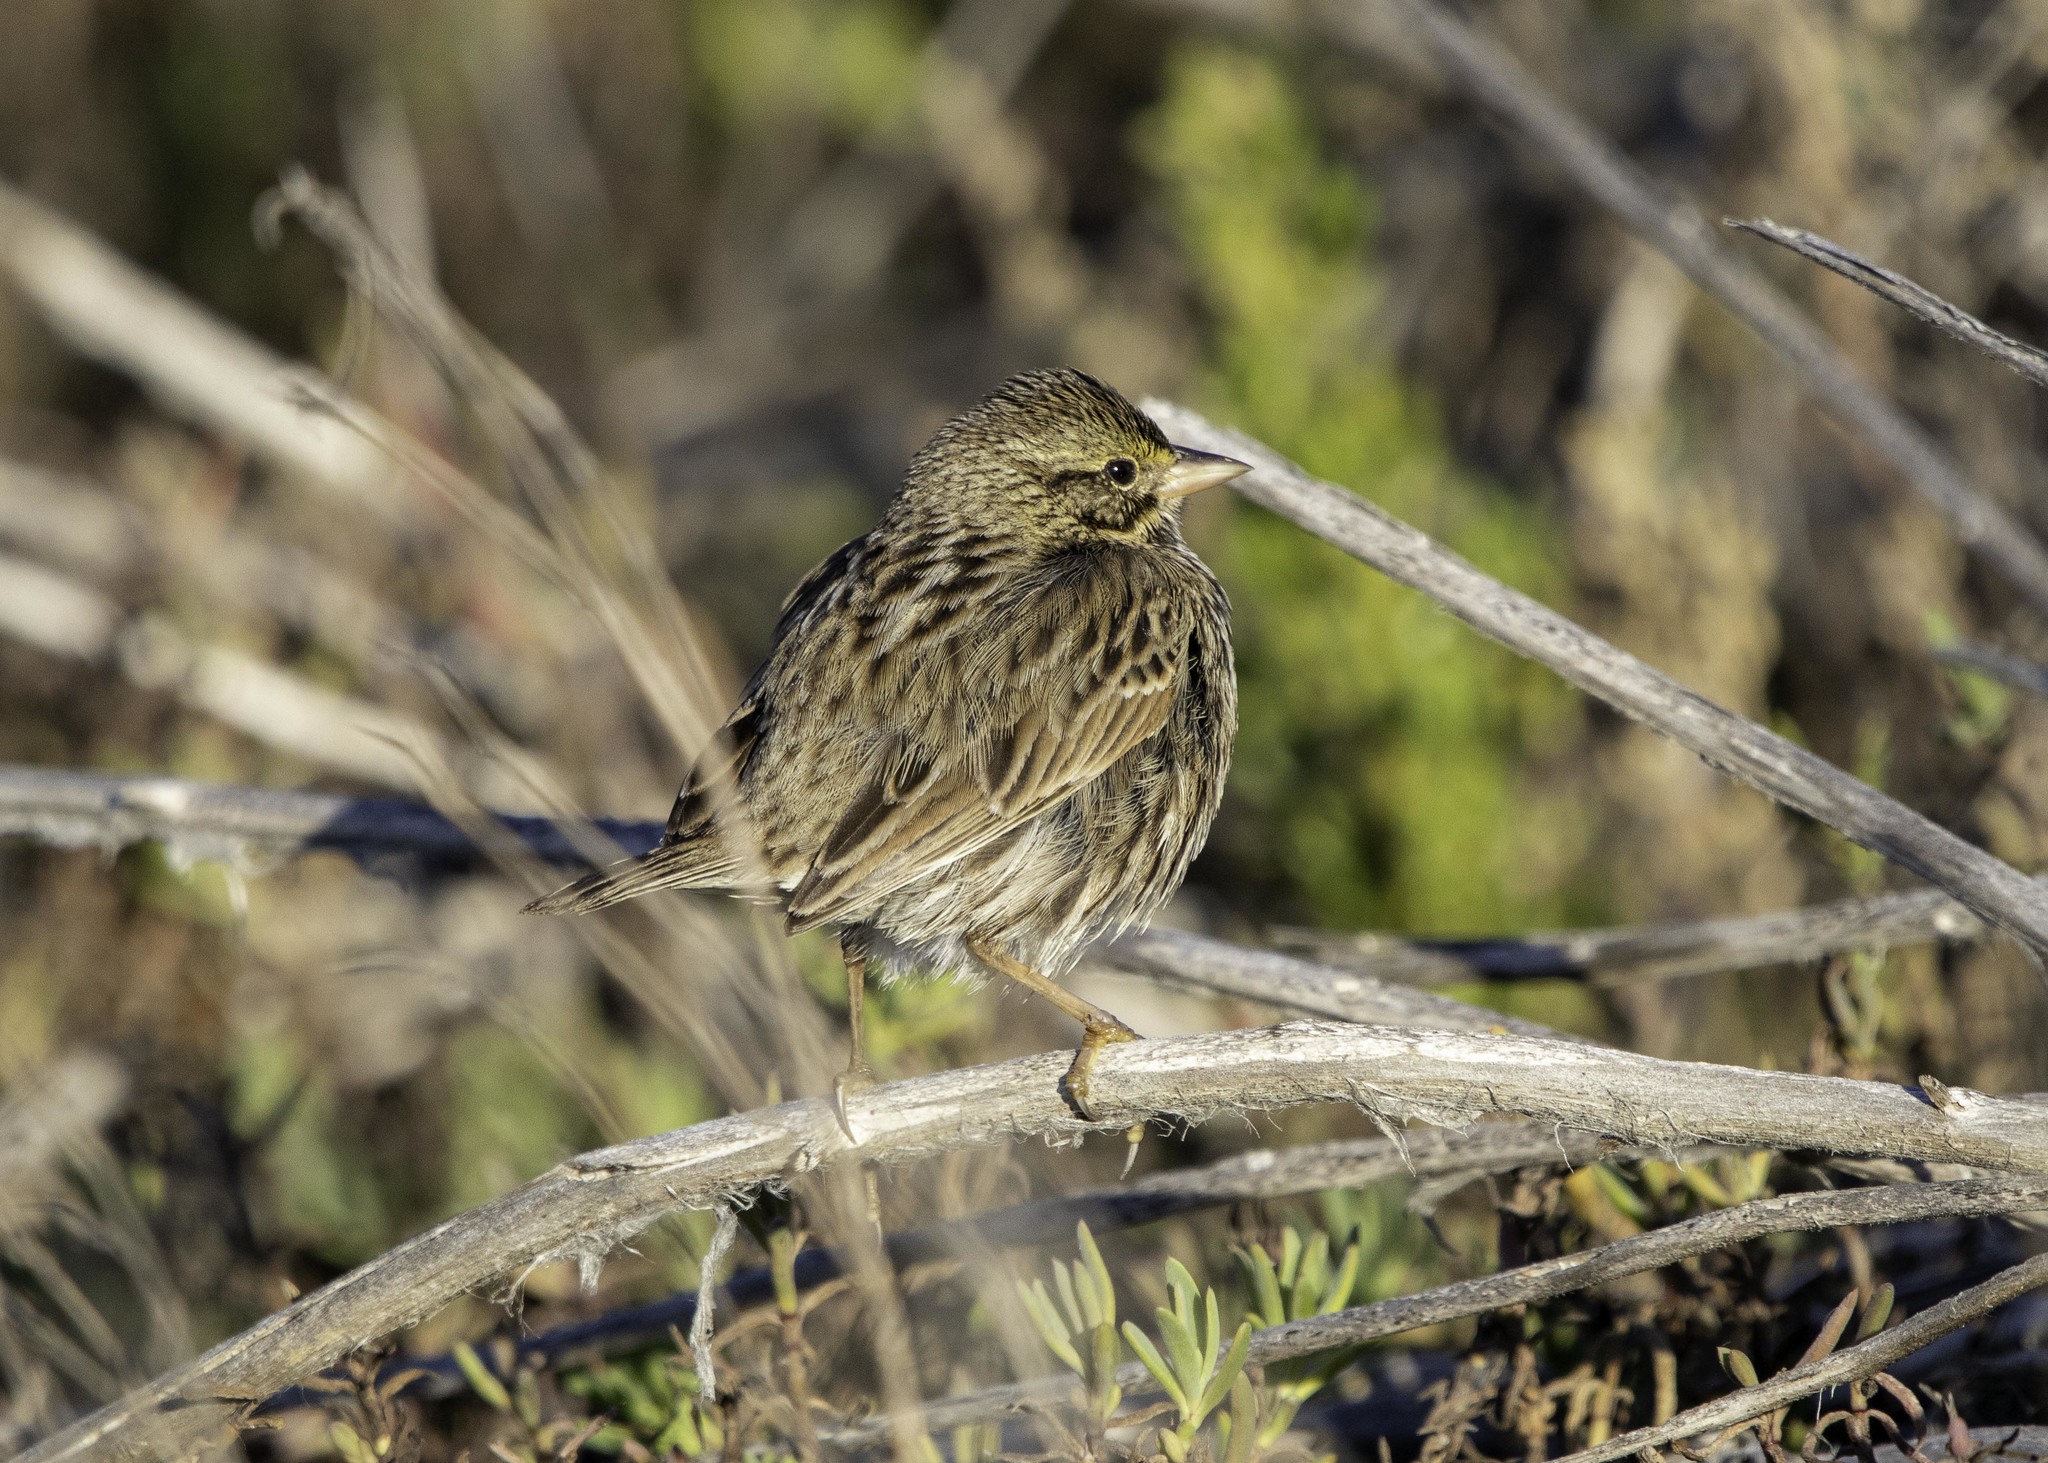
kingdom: Animalia
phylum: Chordata
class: Aves
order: Passeriformes
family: Passerellidae
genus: Passerculus
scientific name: Passerculus sandwichensis
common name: Savannah sparrow
